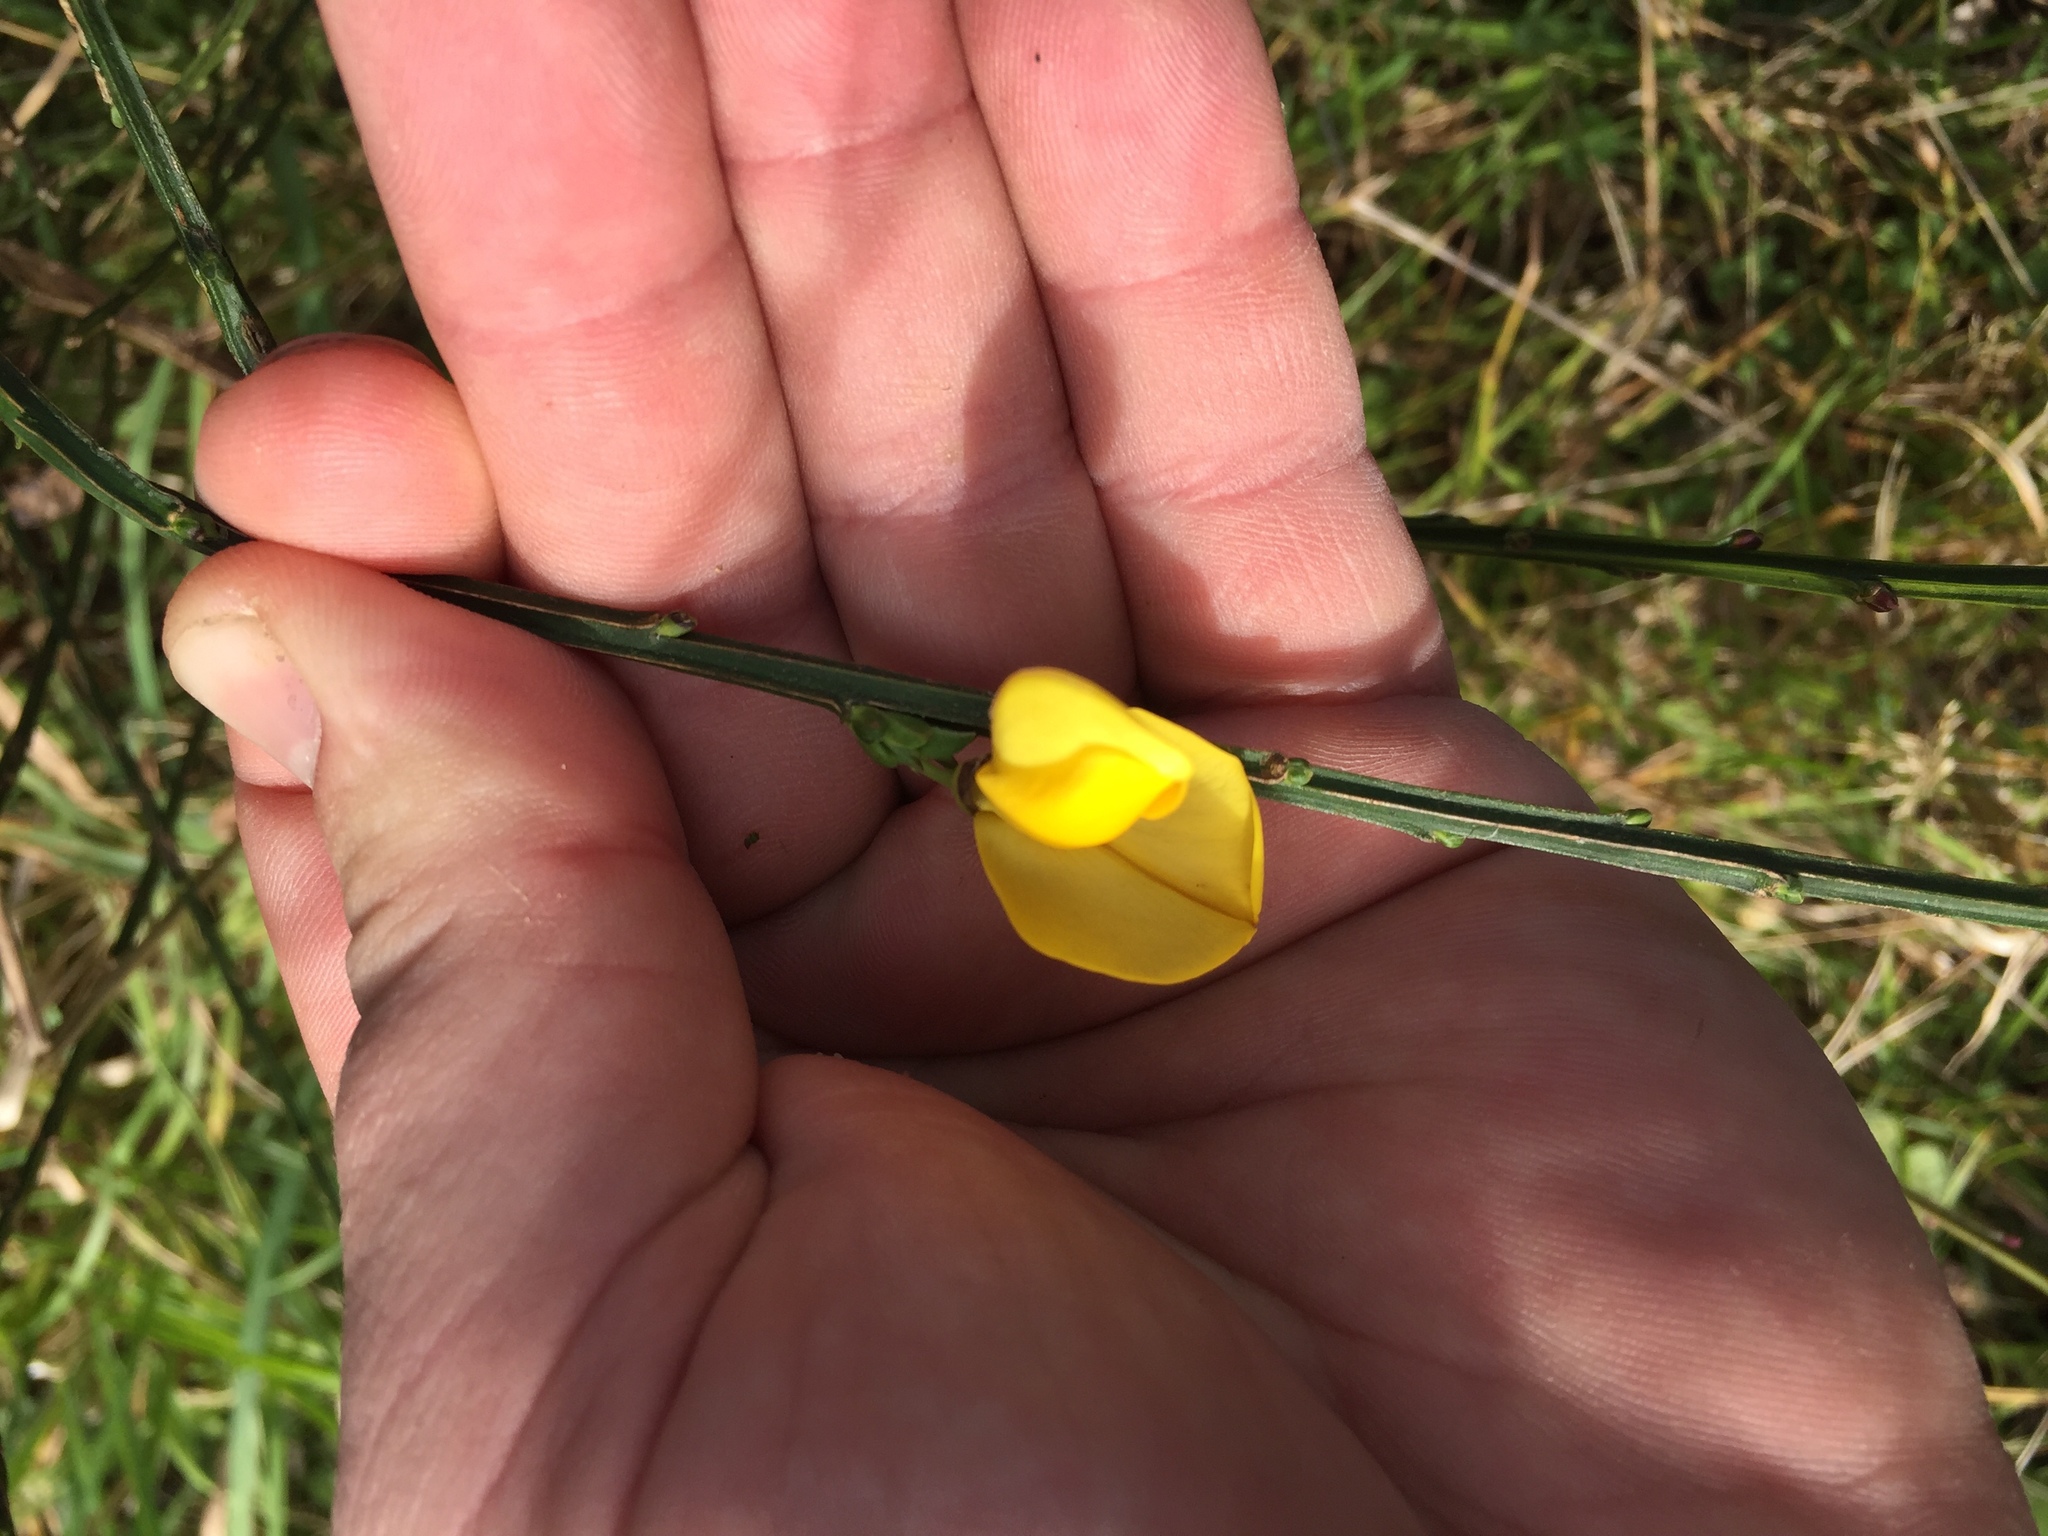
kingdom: Plantae
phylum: Tracheophyta
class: Magnoliopsida
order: Fabales
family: Fabaceae
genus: Cytisus
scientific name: Cytisus scoparius
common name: Scotch broom
